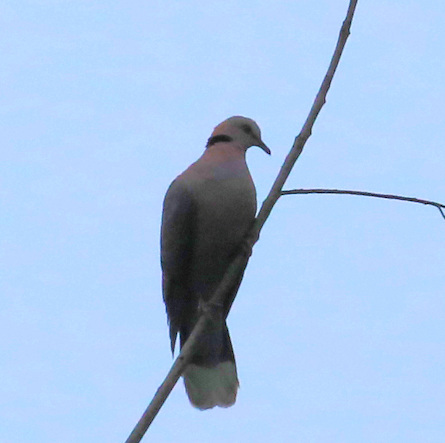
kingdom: Animalia
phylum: Chordata
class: Aves
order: Columbiformes
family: Columbidae
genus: Streptopelia
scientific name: Streptopelia semitorquata
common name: Red-eyed dove
